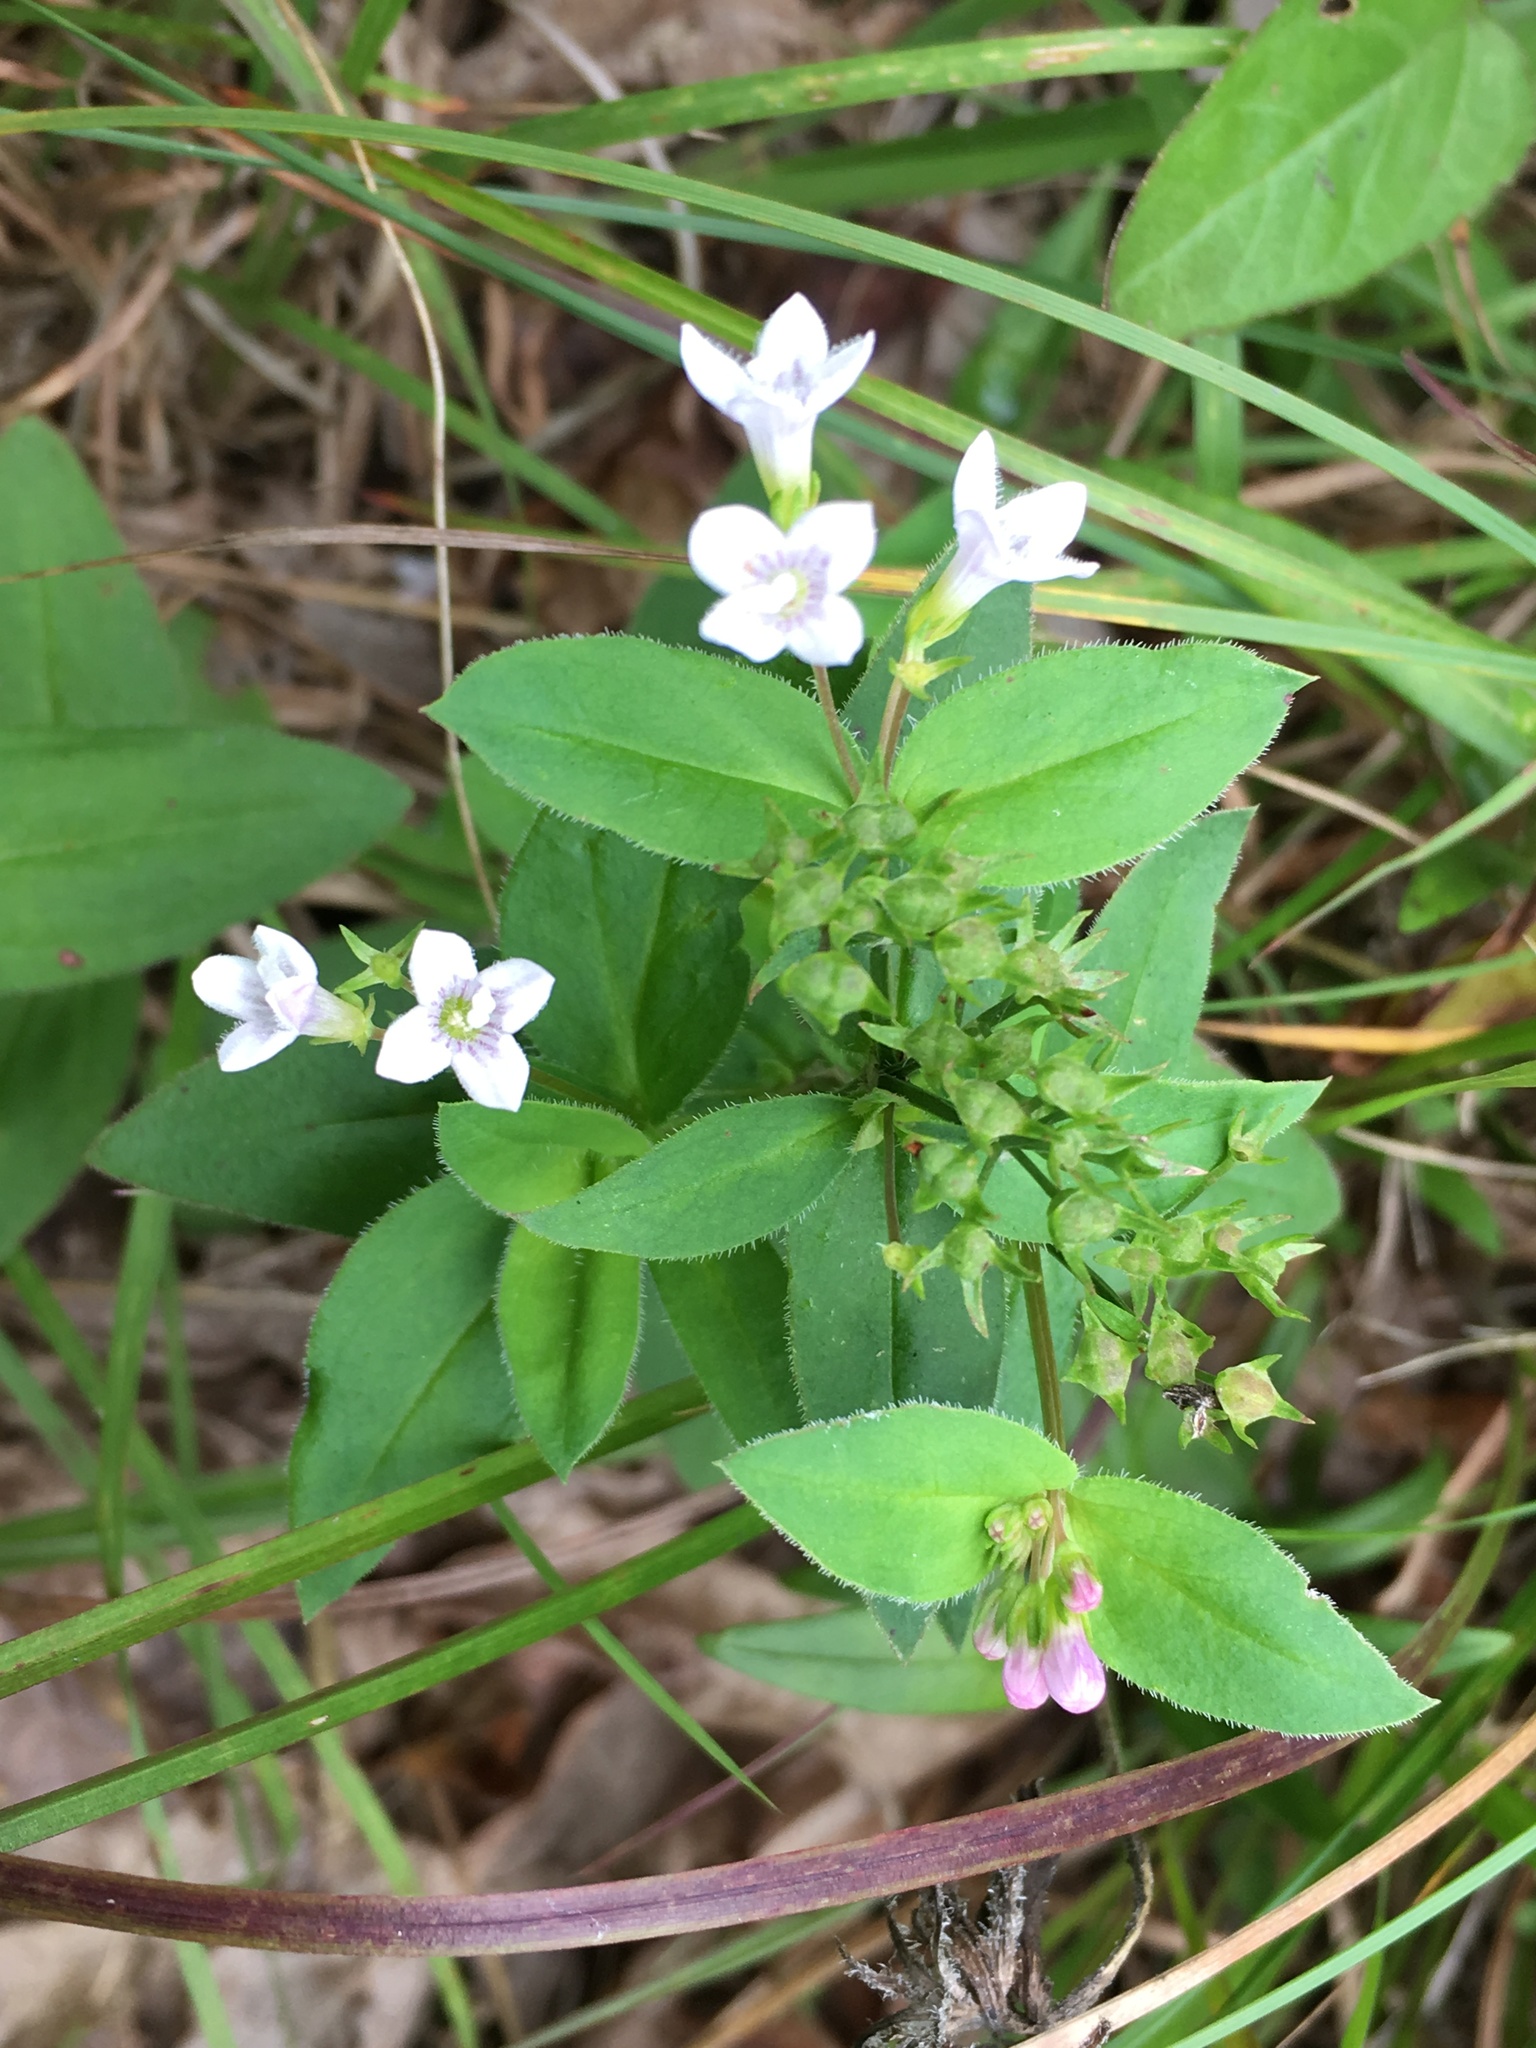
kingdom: Plantae
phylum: Tracheophyta
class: Magnoliopsida
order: Gentianales
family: Rubiaceae
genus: Houstonia
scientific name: Houstonia purpurea
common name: Summer bluet
